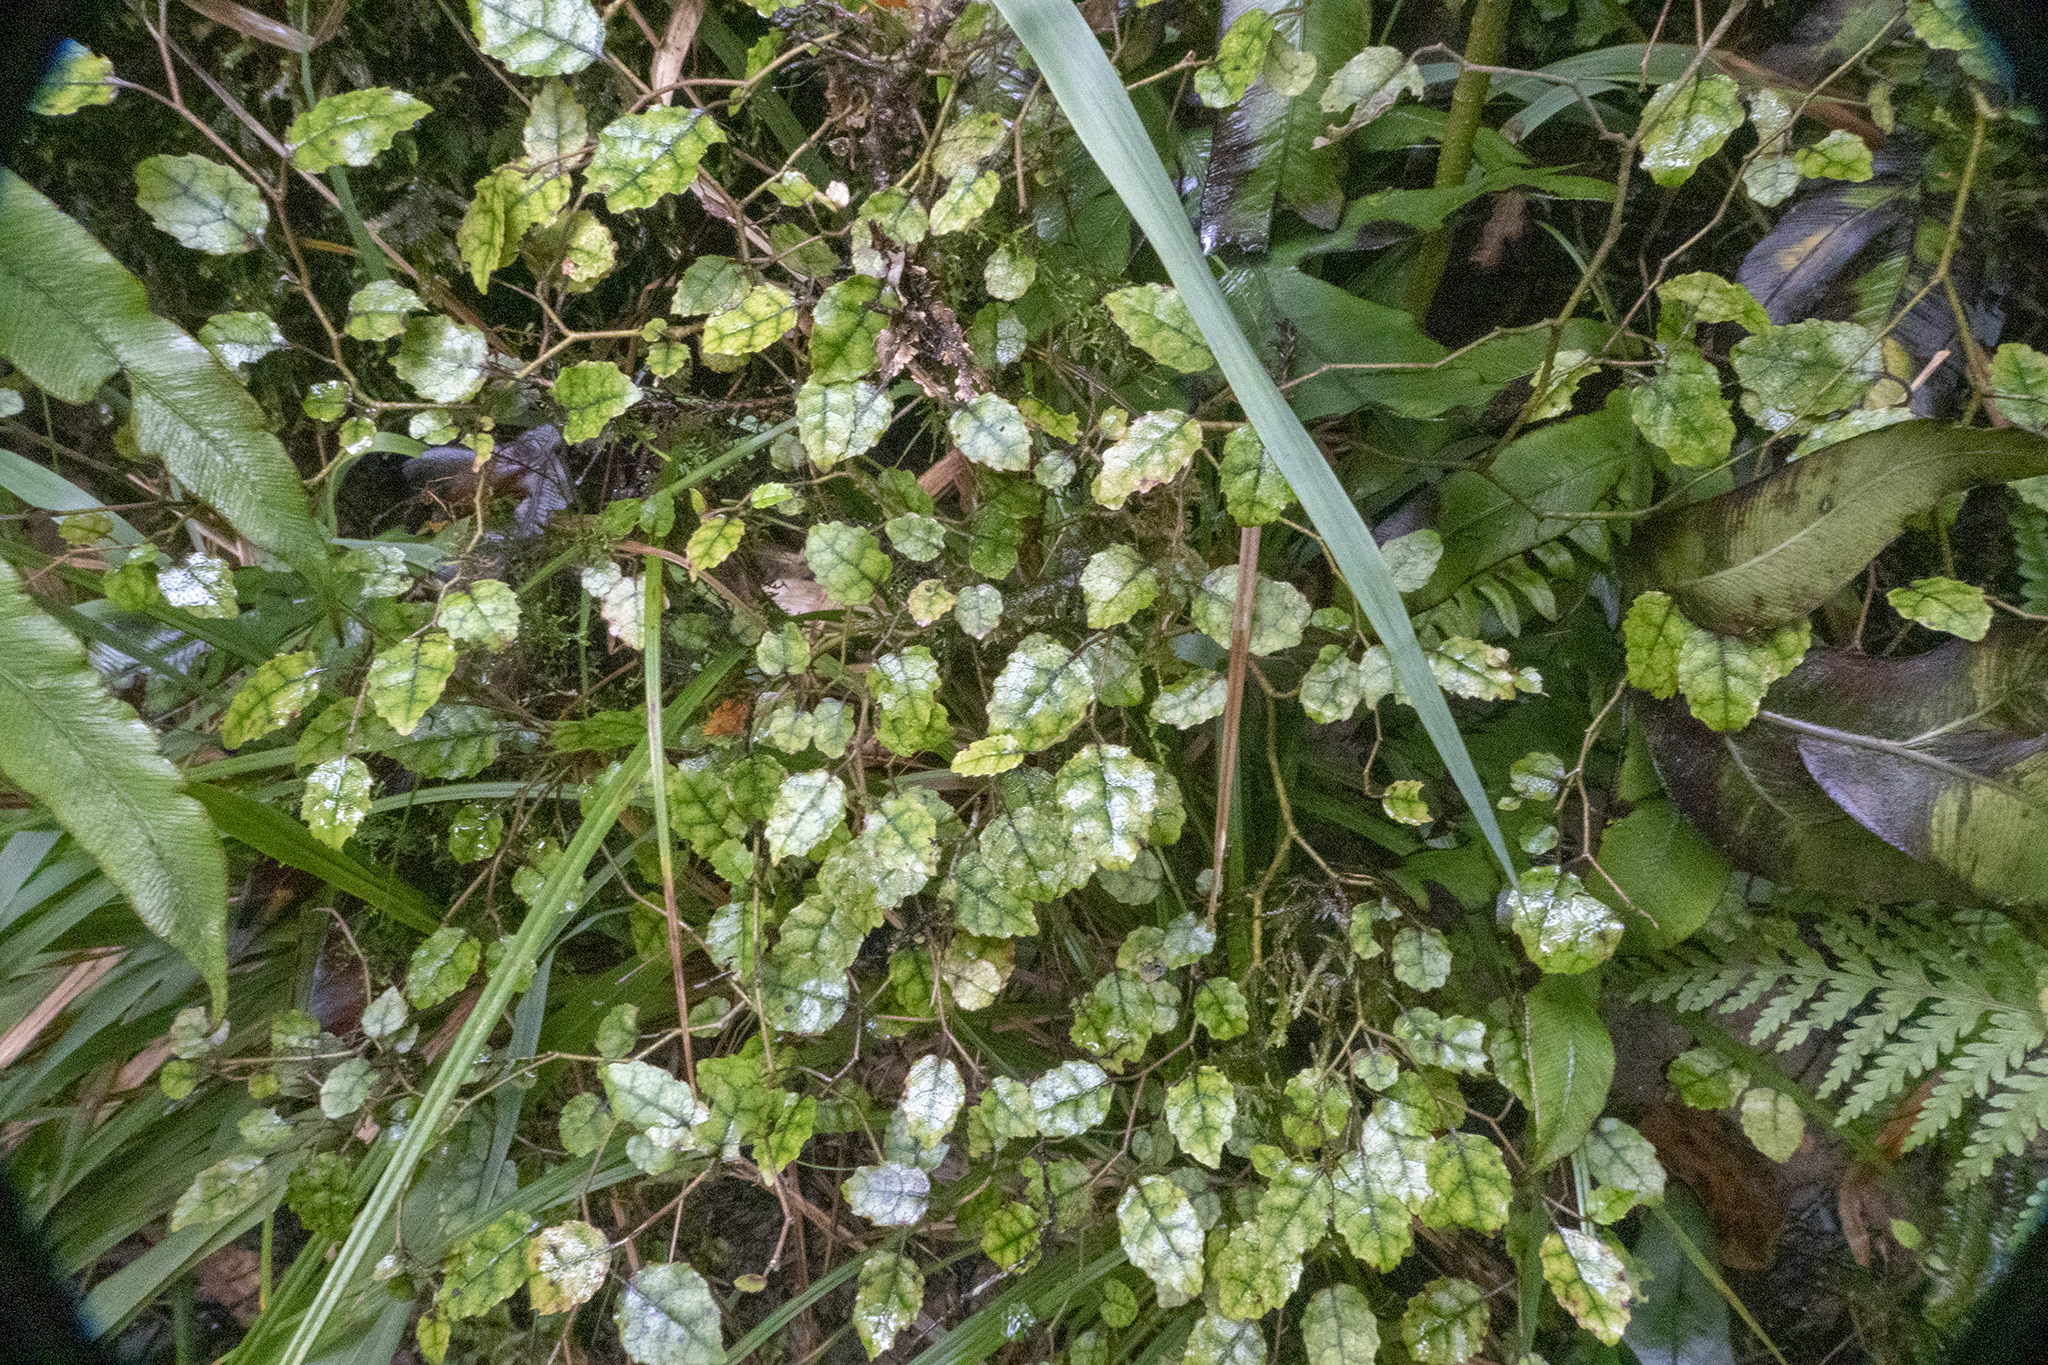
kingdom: Plantae
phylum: Tracheophyta
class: Magnoliopsida
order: Asterales
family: Rousseaceae
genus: Carpodetus
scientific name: Carpodetus serratus
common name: White mapau
